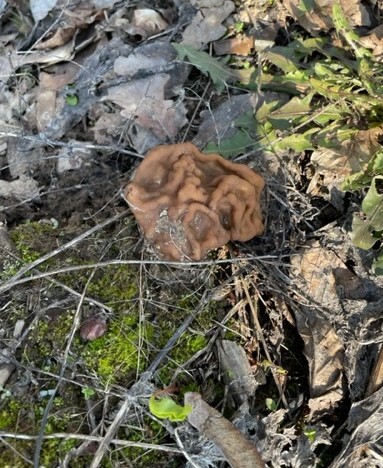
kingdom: Fungi
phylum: Ascomycota
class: Pezizomycetes
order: Pezizales
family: Discinaceae
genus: Gyromitra
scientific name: Gyromitra gigas
